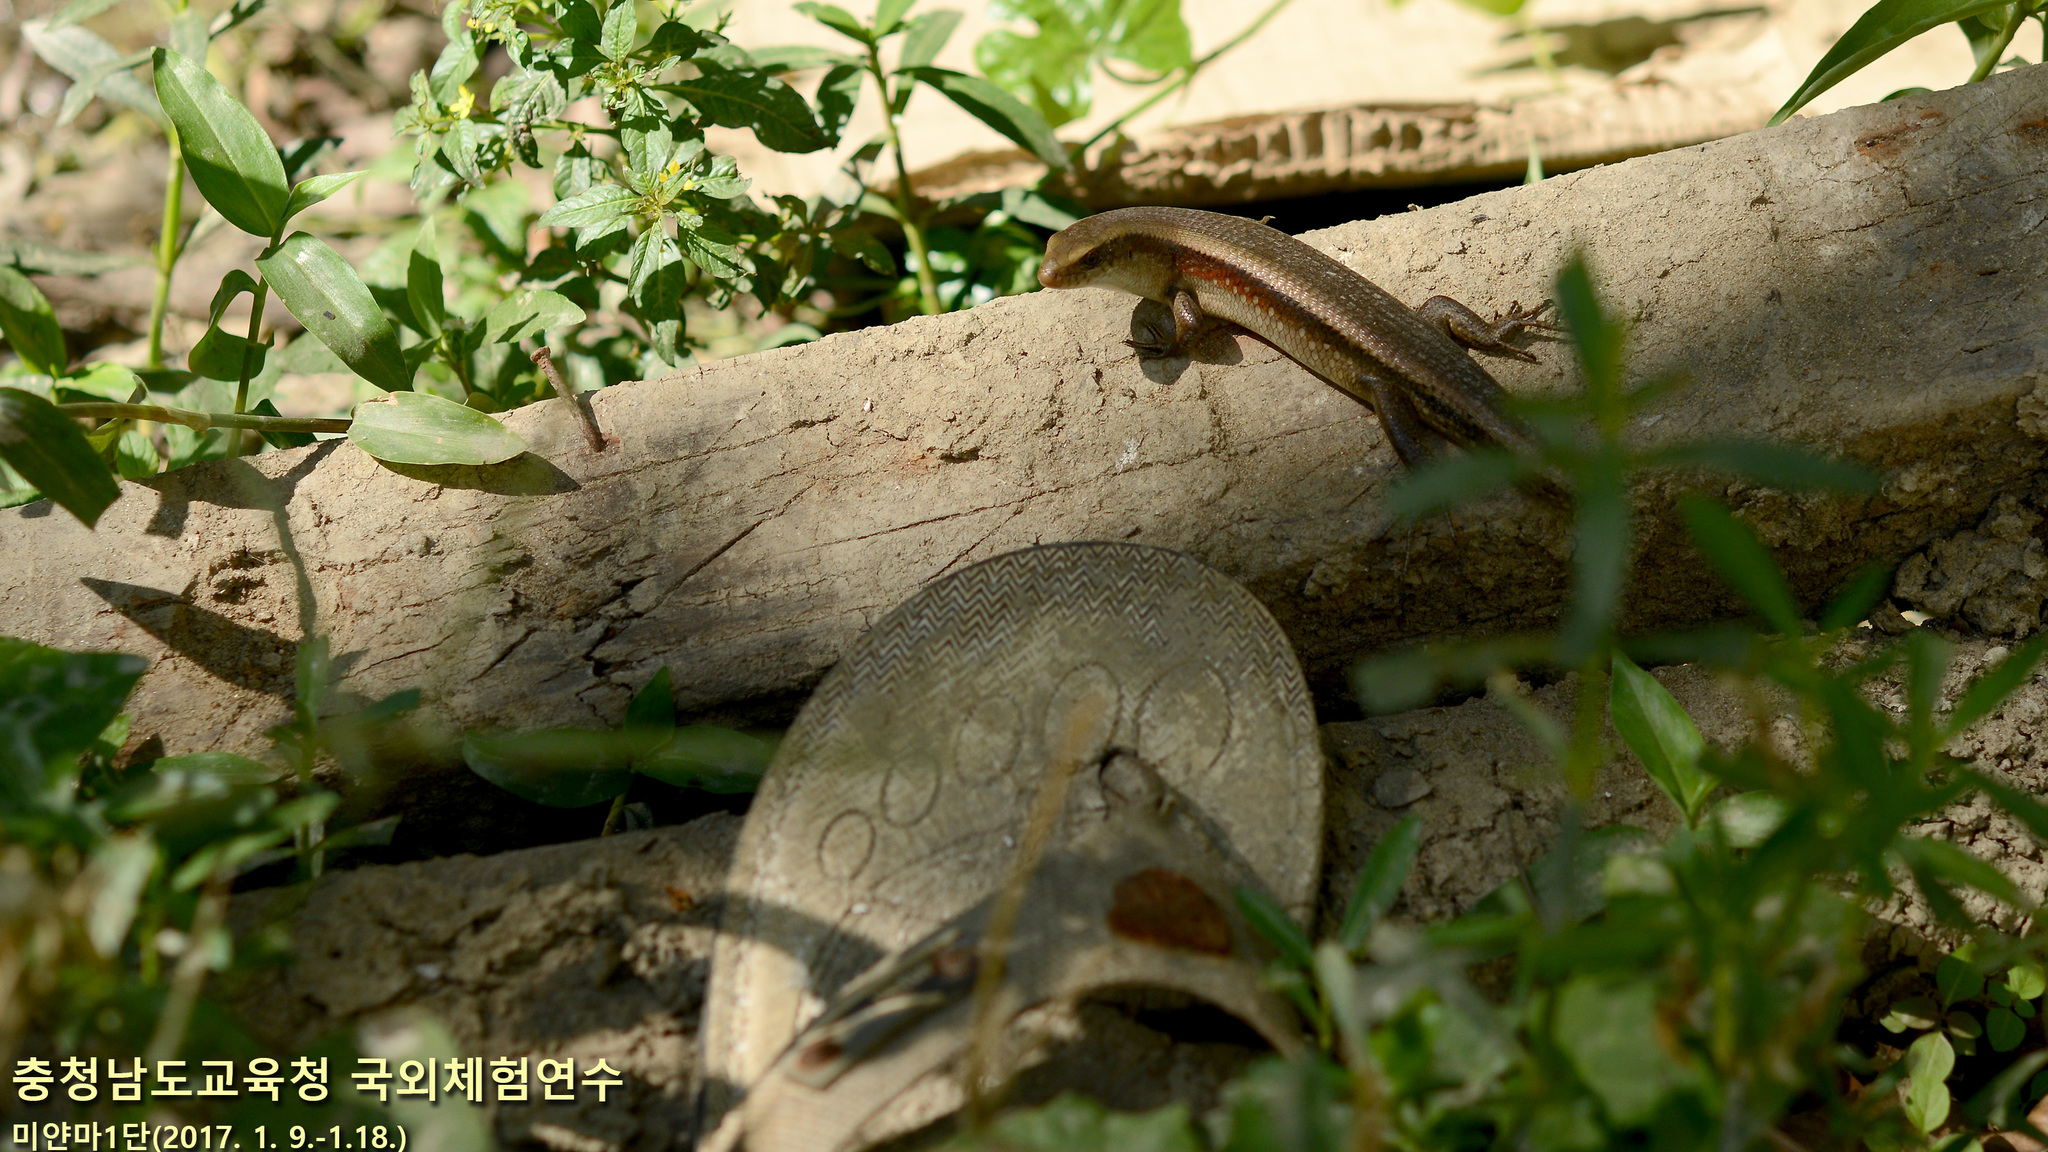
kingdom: Animalia
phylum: Chordata
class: Squamata
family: Scincidae
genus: Eutropis
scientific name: Eutropis multifasciata
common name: Common mabuya
